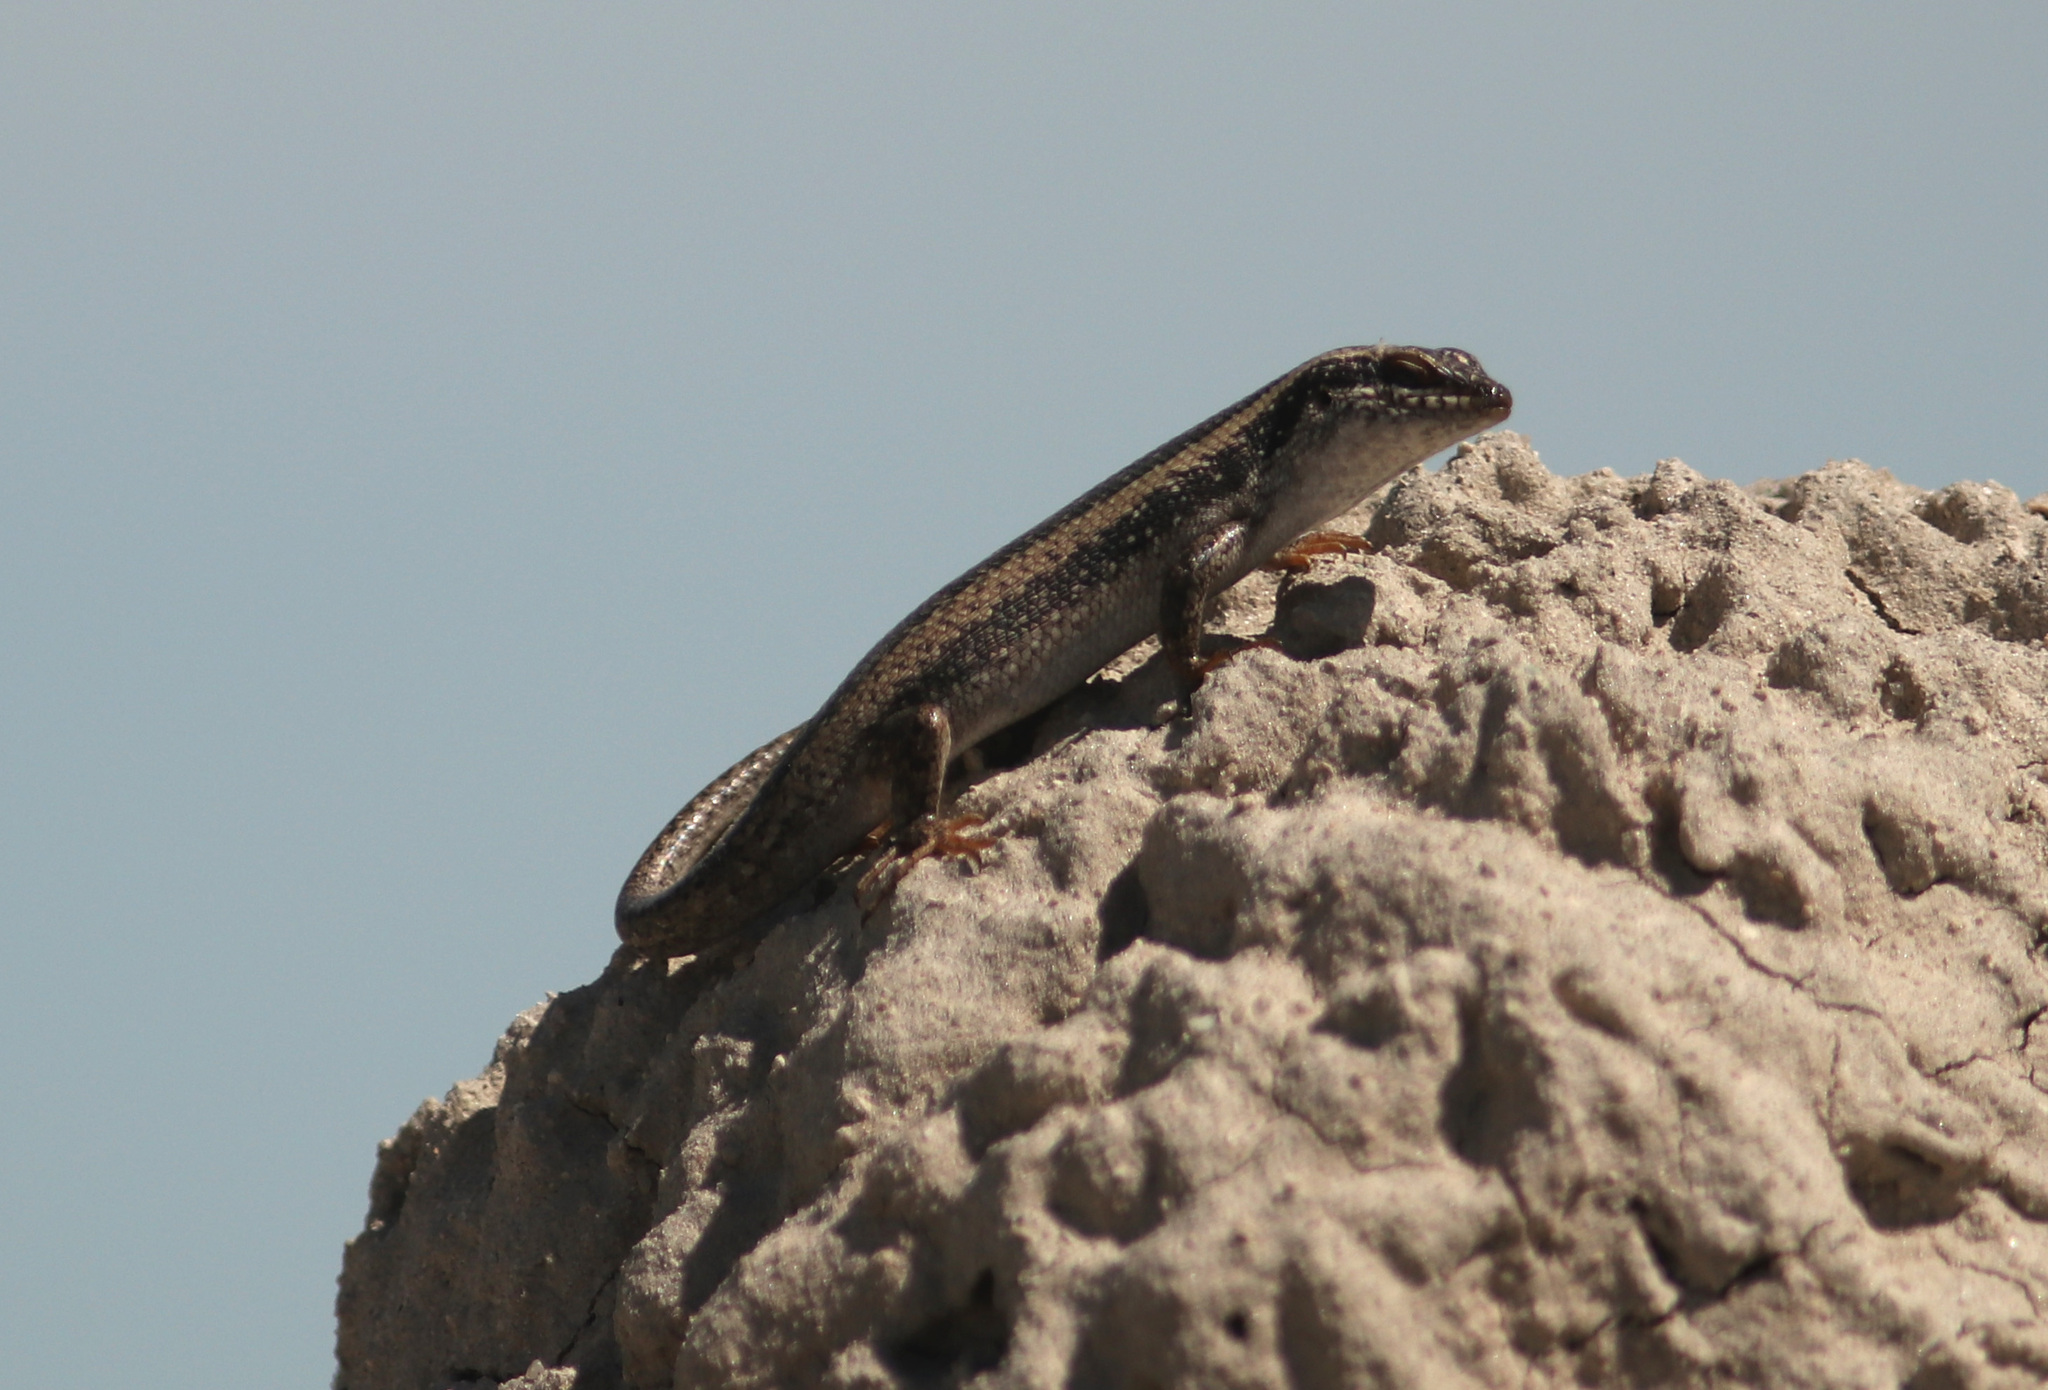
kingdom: Animalia
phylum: Chordata
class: Squamata
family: Scincidae
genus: Trachylepis
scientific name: Trachylepis spilogaster
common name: Kalahari tree skink
